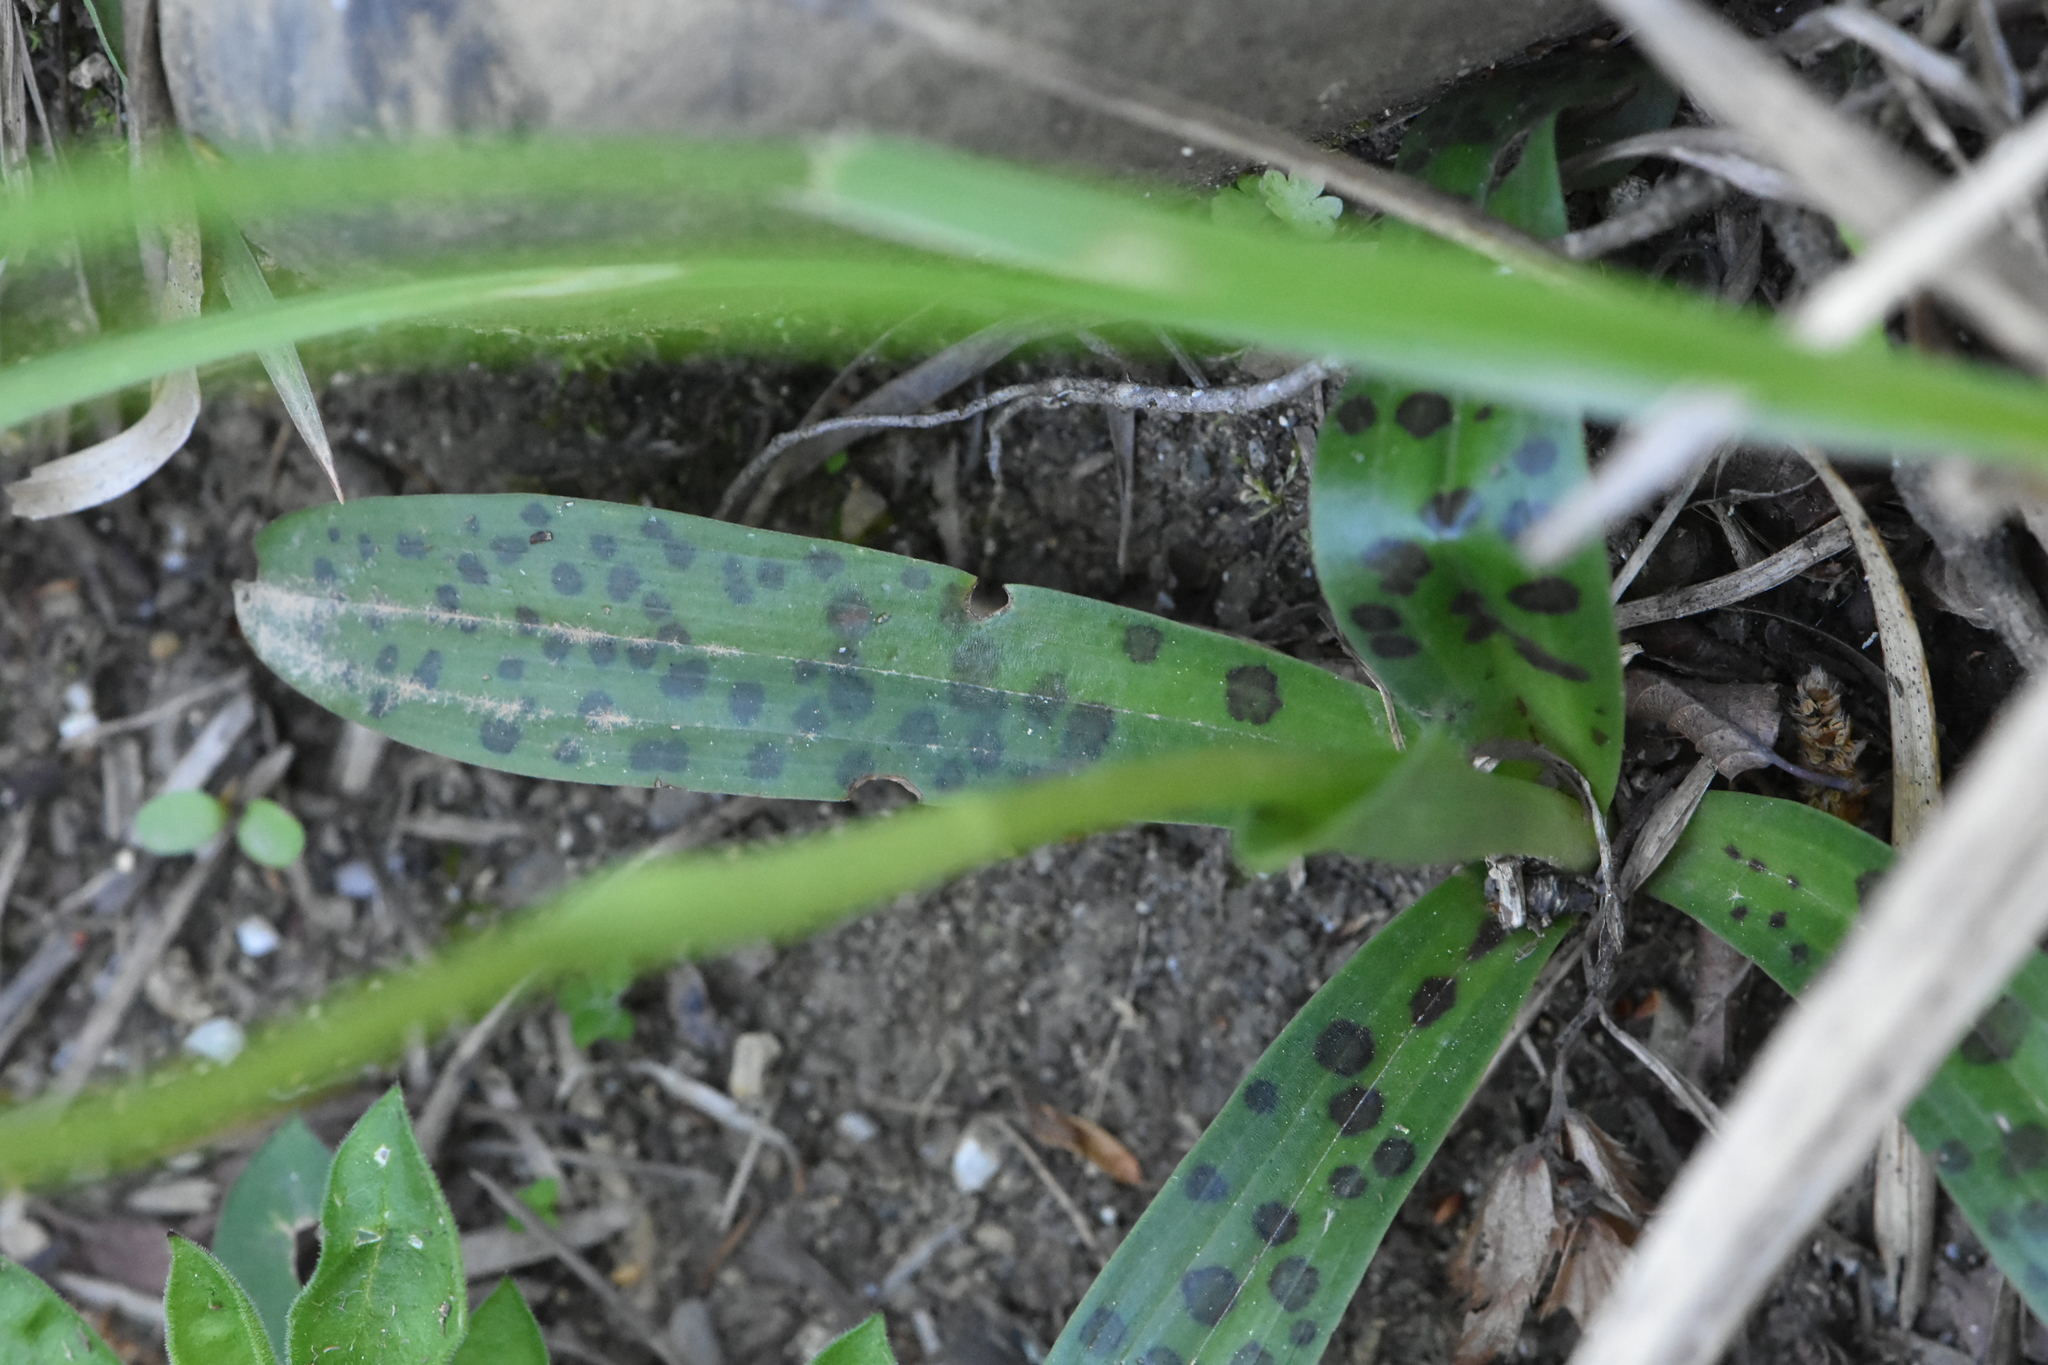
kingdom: Plantae
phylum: Tracheophyta
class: Liliopsida
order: Asparagales
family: Orchidaceae
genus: Orchis
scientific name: Orchis provincialis
